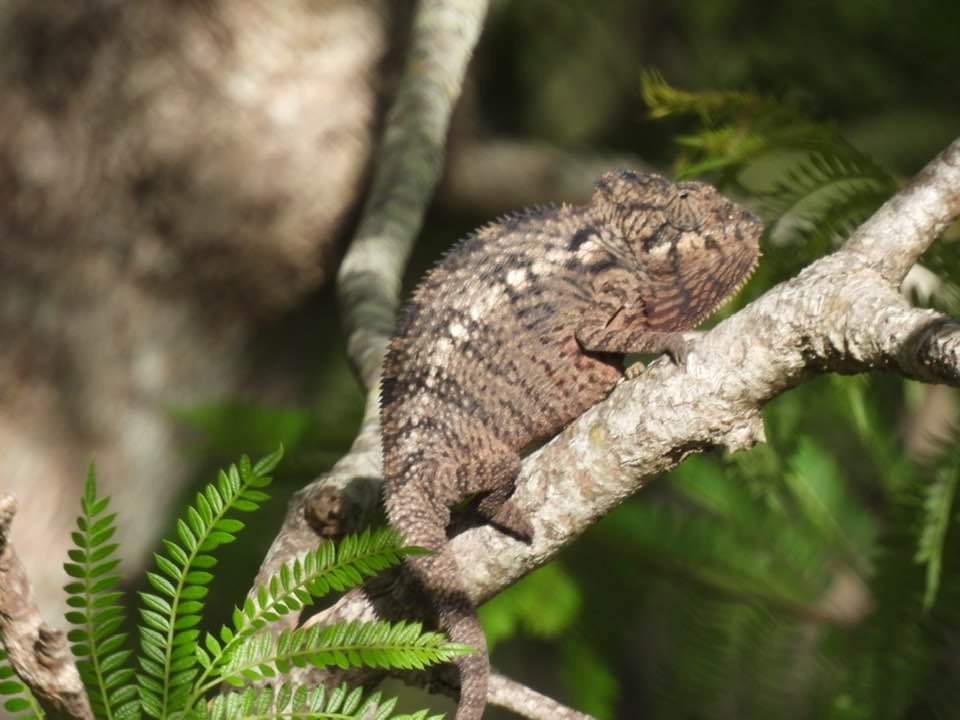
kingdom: Animalia
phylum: Chordata
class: Squamata
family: Chamaeleonidae
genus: Furcifer
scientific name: Furcifer oustaleti
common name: Oustalet's chameleon
